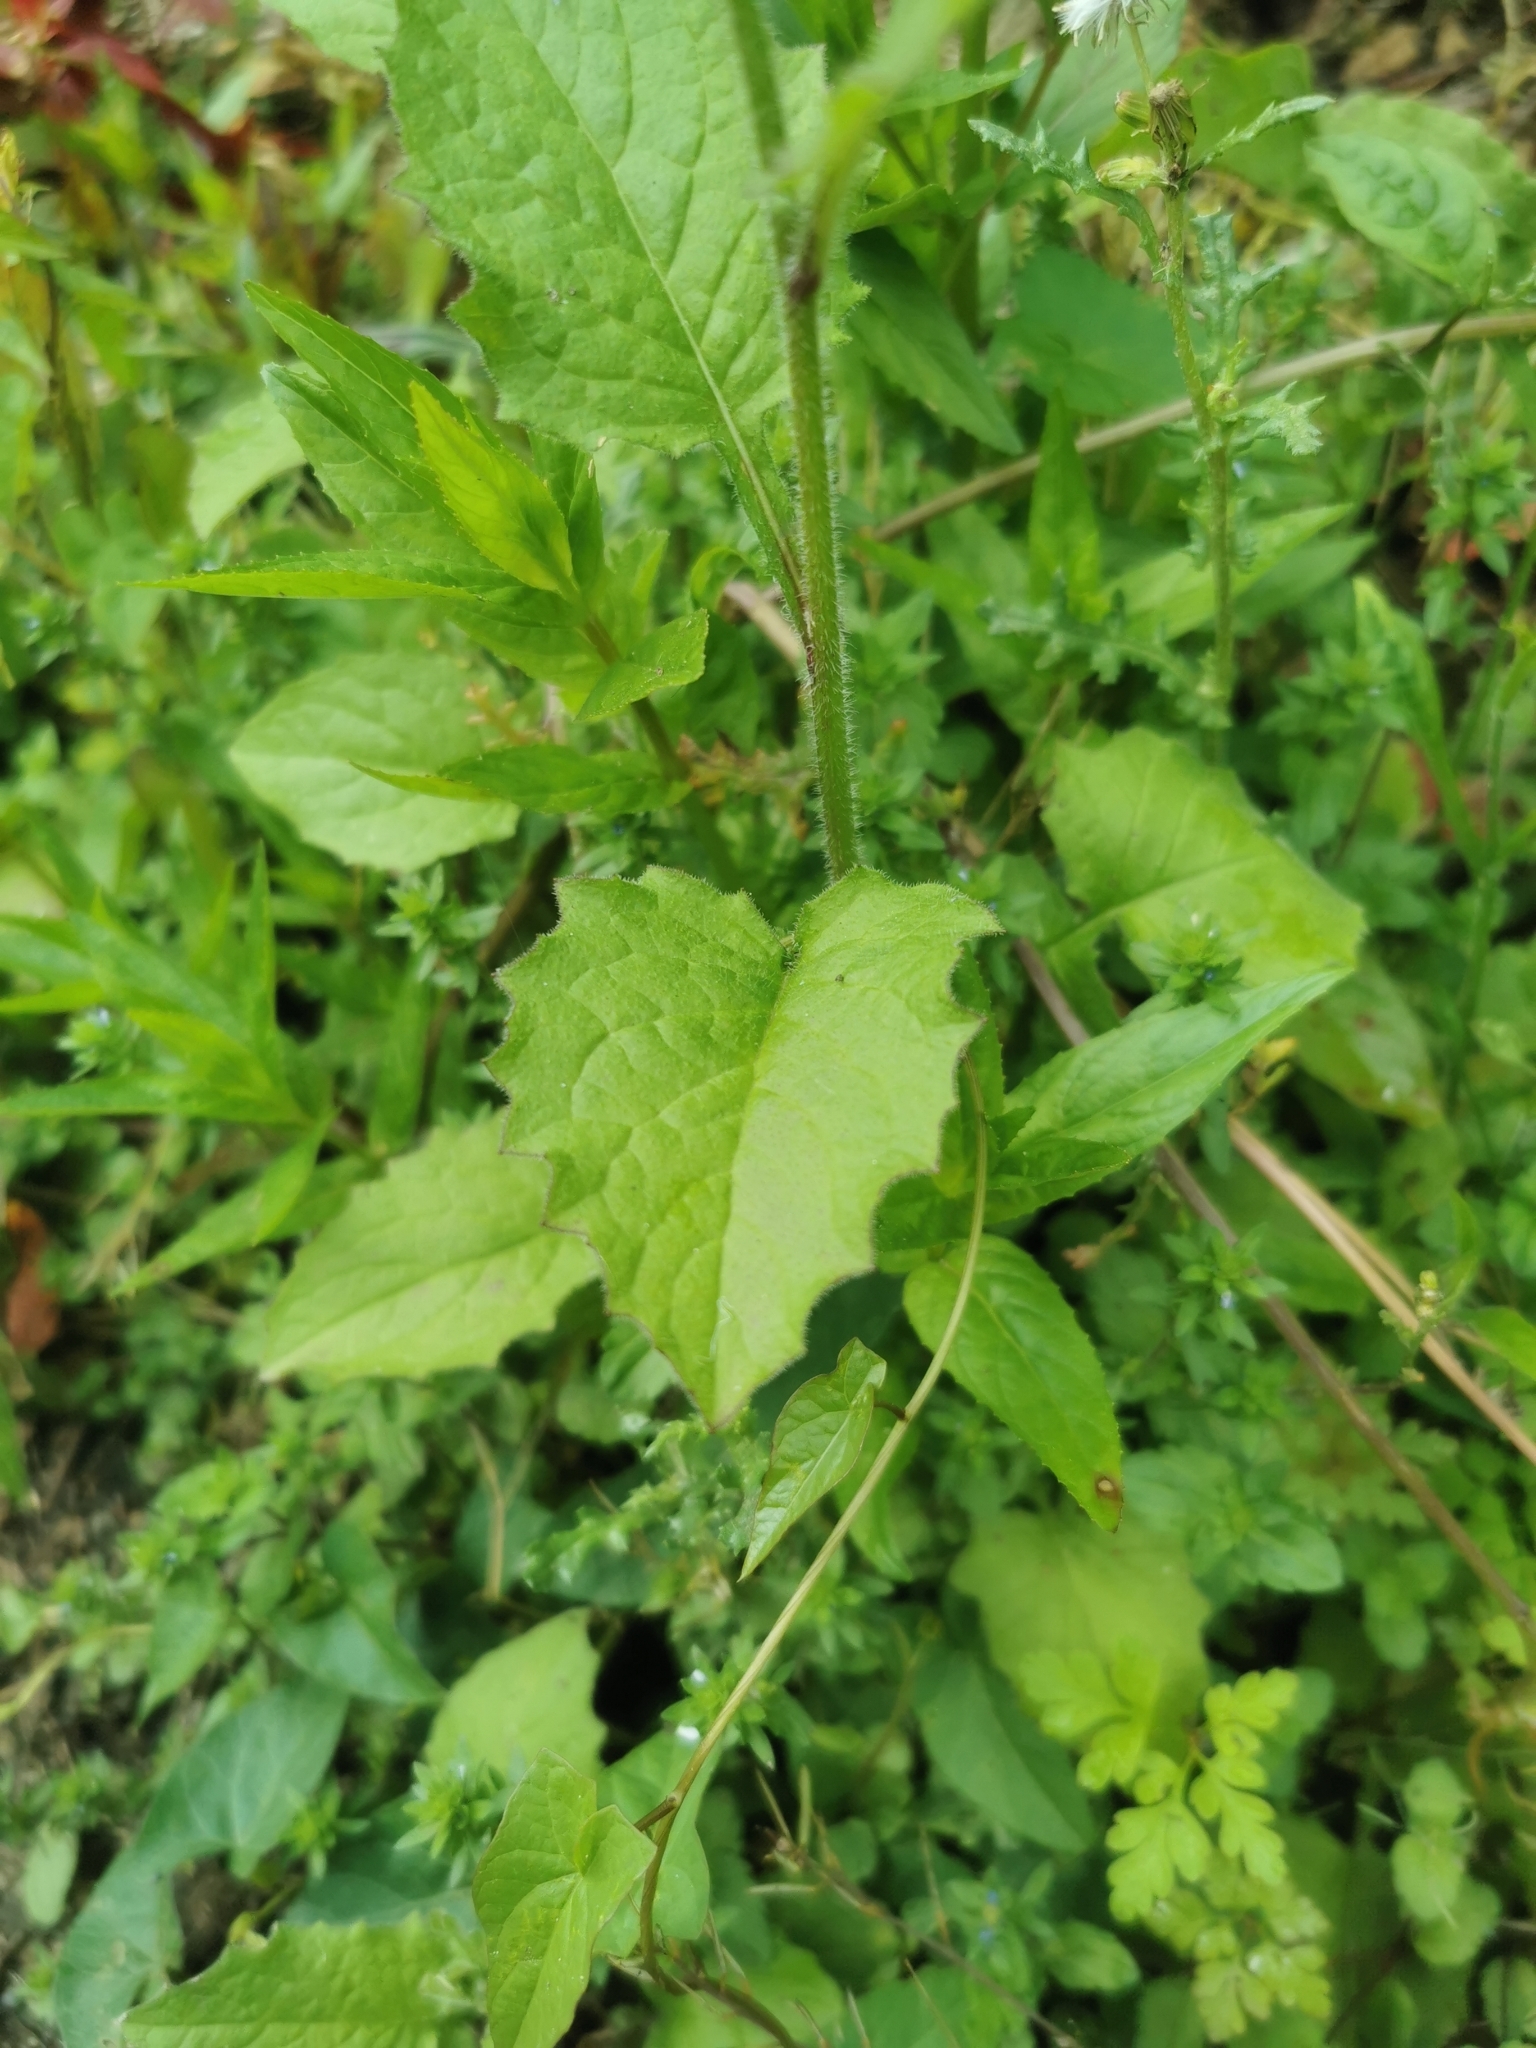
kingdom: Plantae
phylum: Tracheophyta
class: Magnoliopsida
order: Asterales
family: Asteraceae
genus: Lapsana
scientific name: Lapsana communis
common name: Nipplewort
